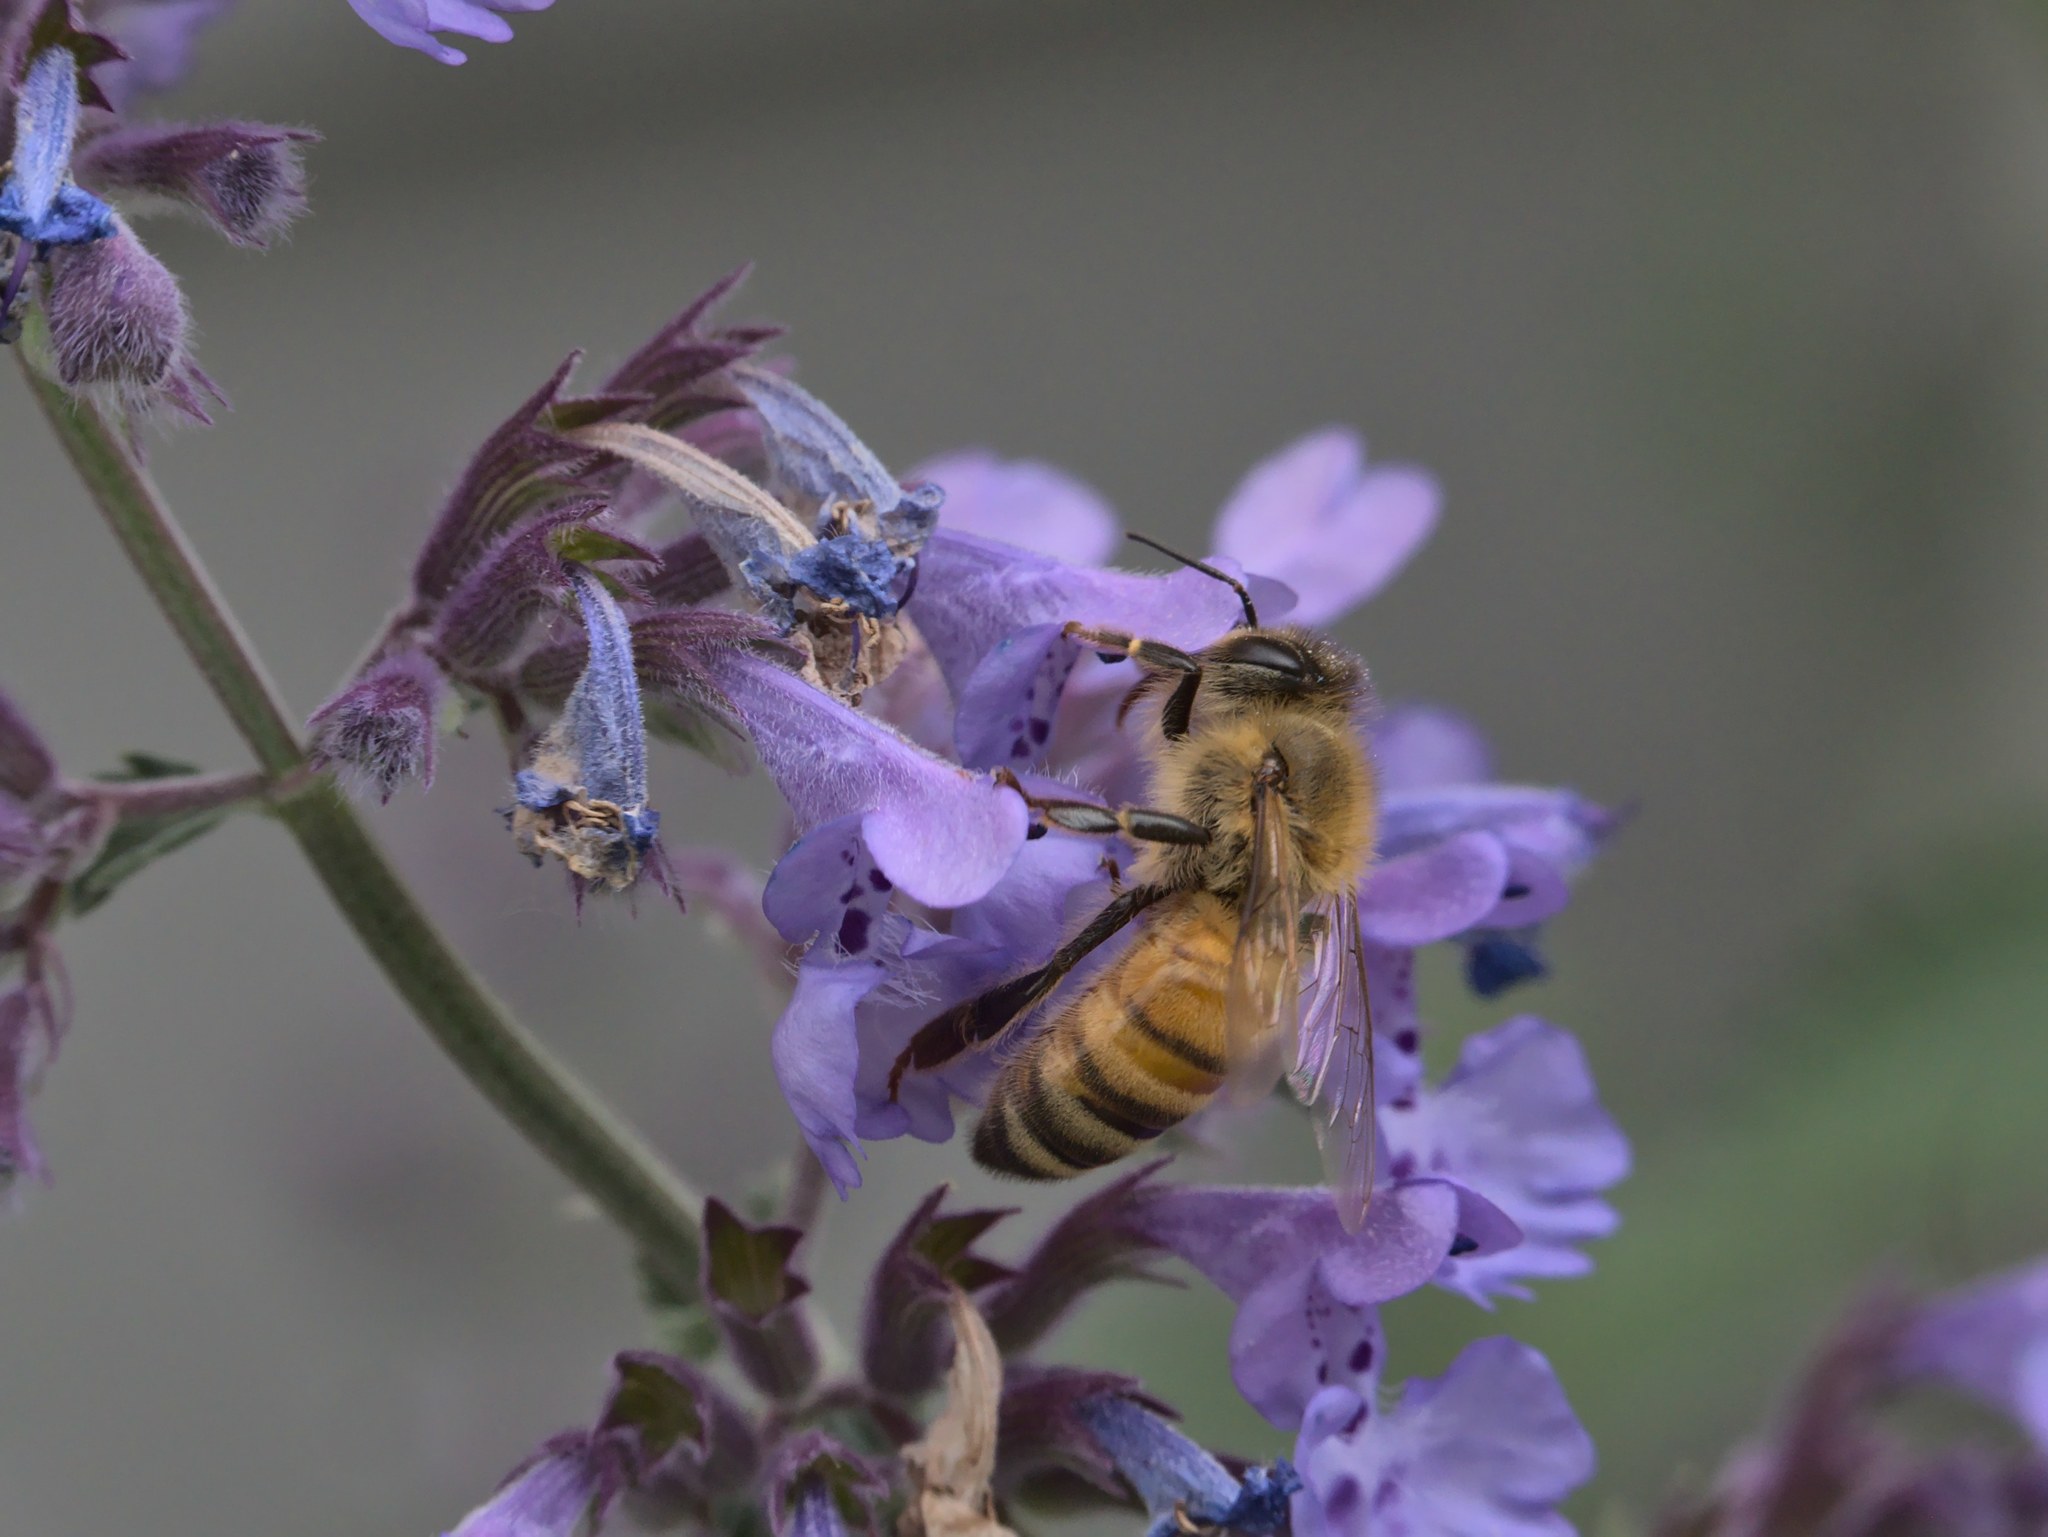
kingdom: Animalia
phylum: Arthropoda
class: Insecta
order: Hymenoptera
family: Apidae
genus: Apis
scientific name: Apis mellifera
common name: Honey bee
